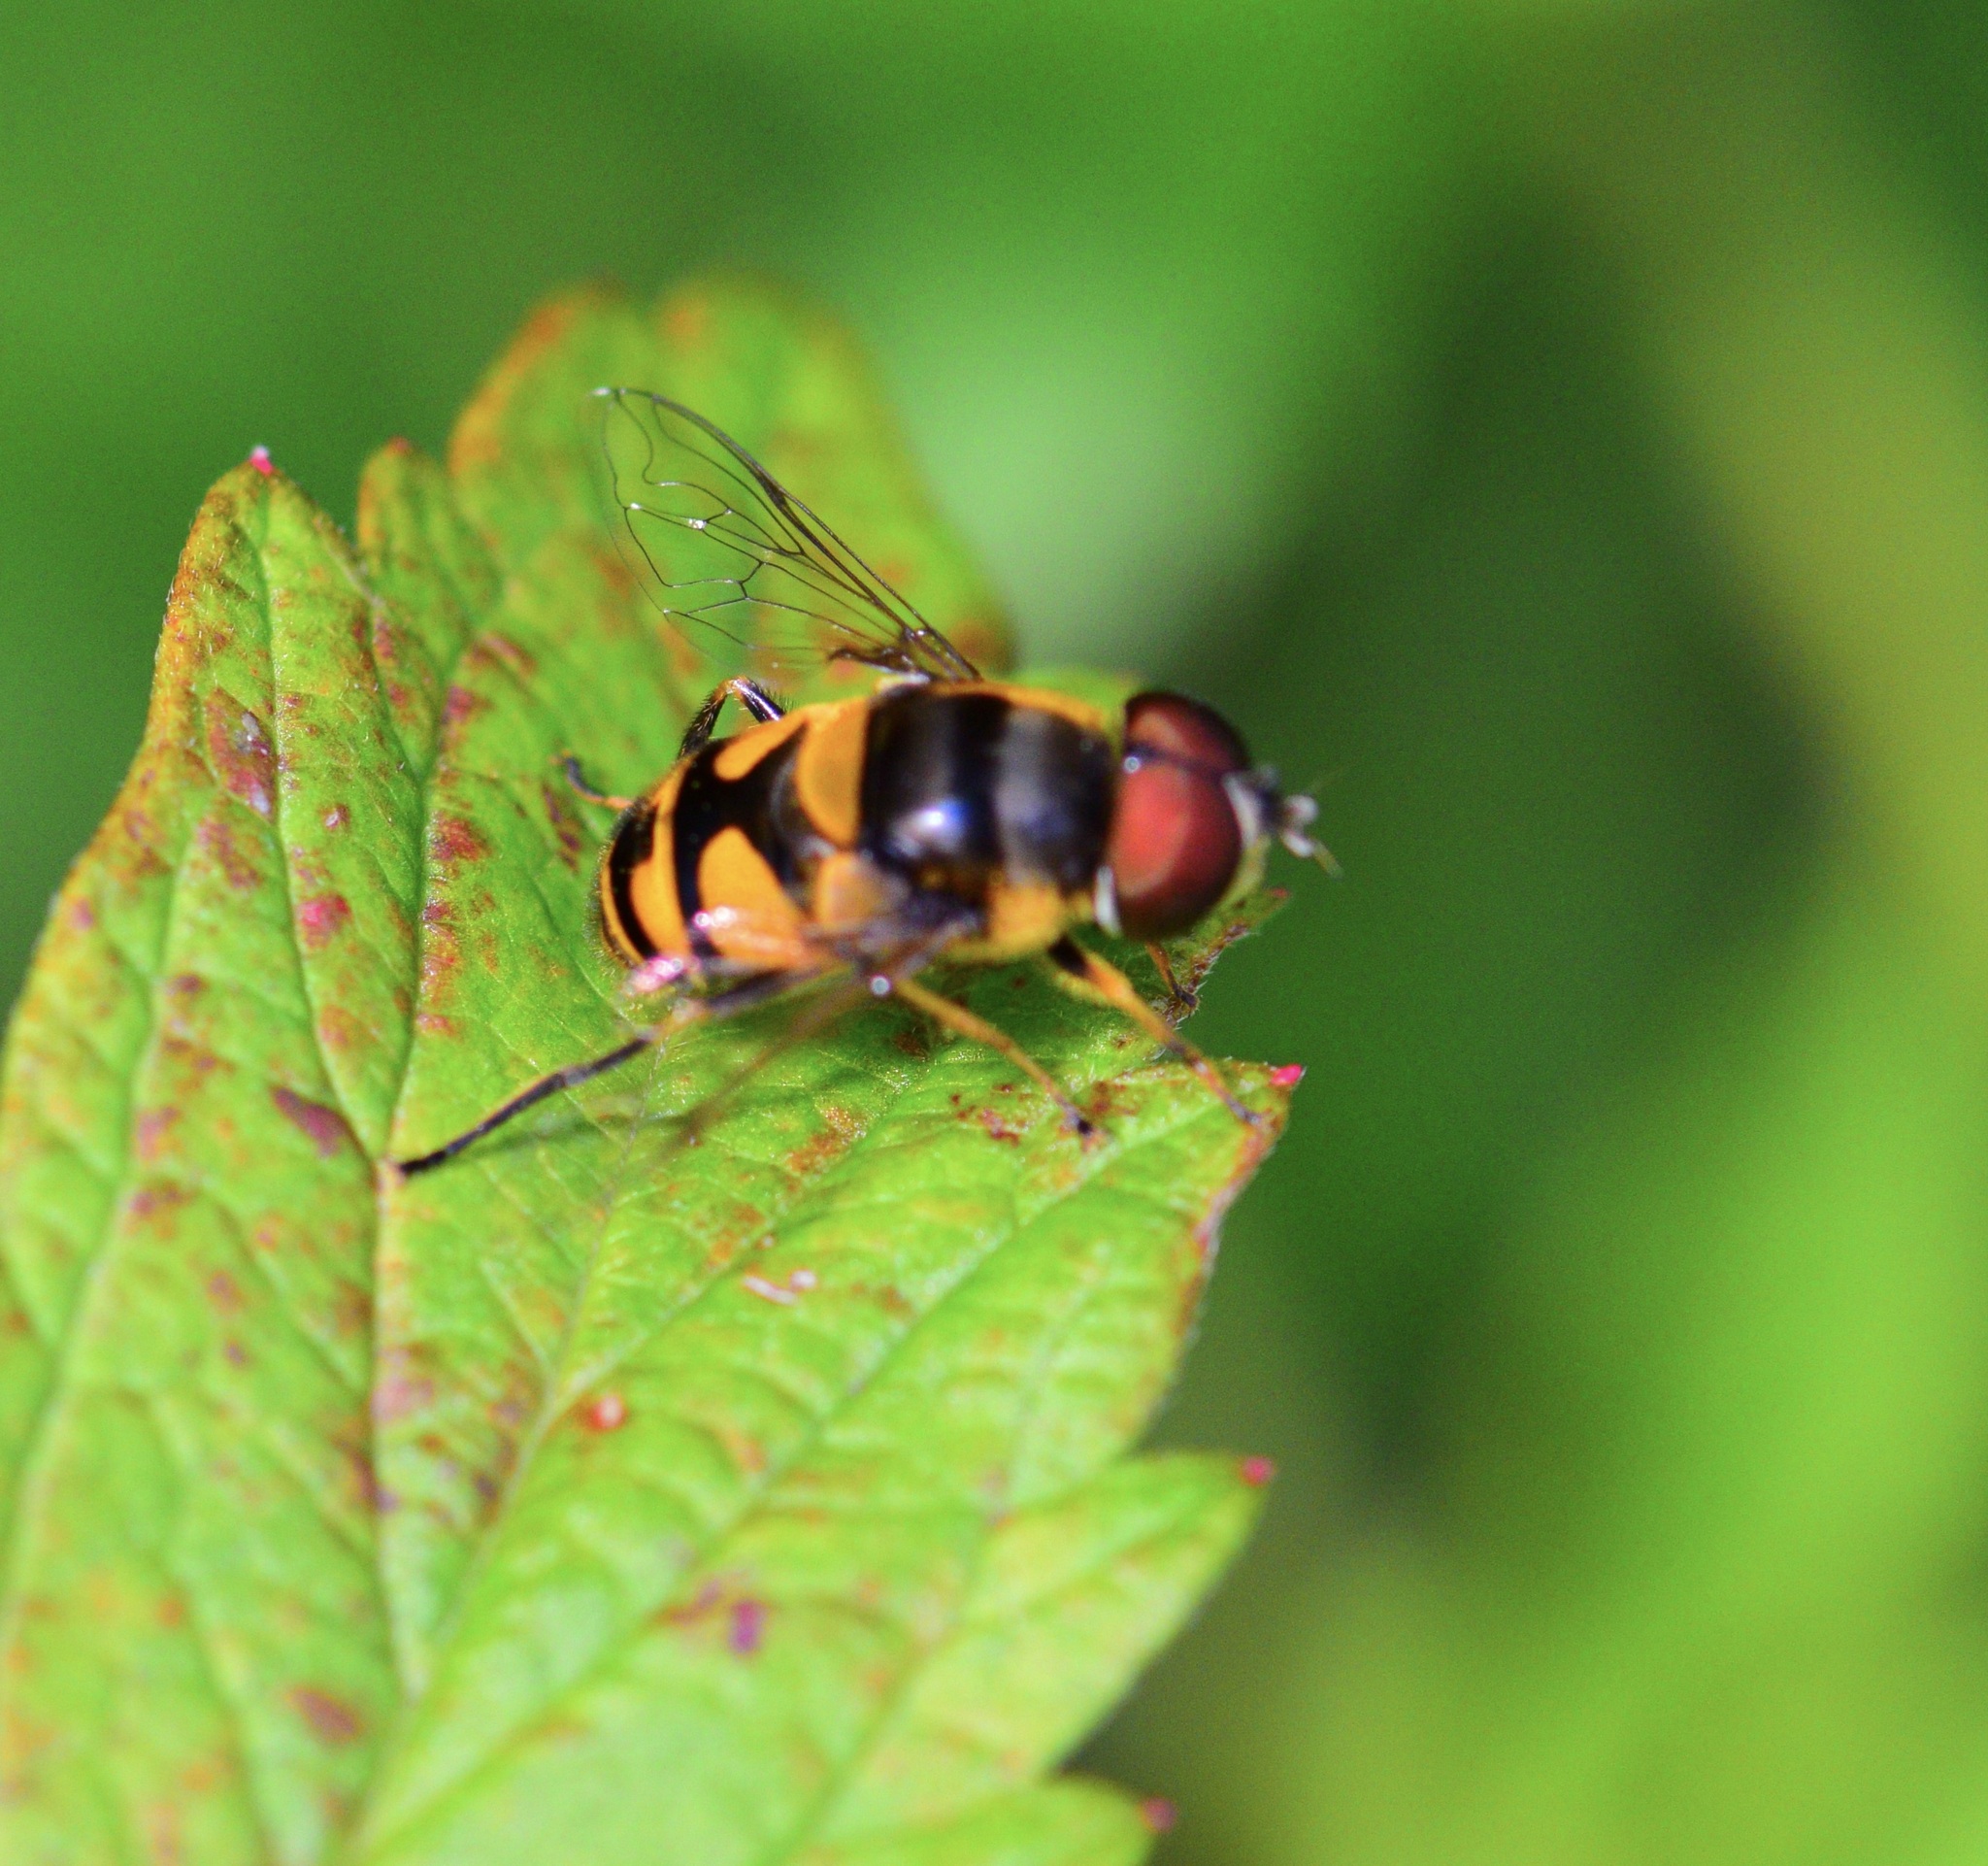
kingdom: Animalia
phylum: Arthropoda
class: Insecta
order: Diptera
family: Syrphidae
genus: Eristalis
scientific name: Eristalis transversa
